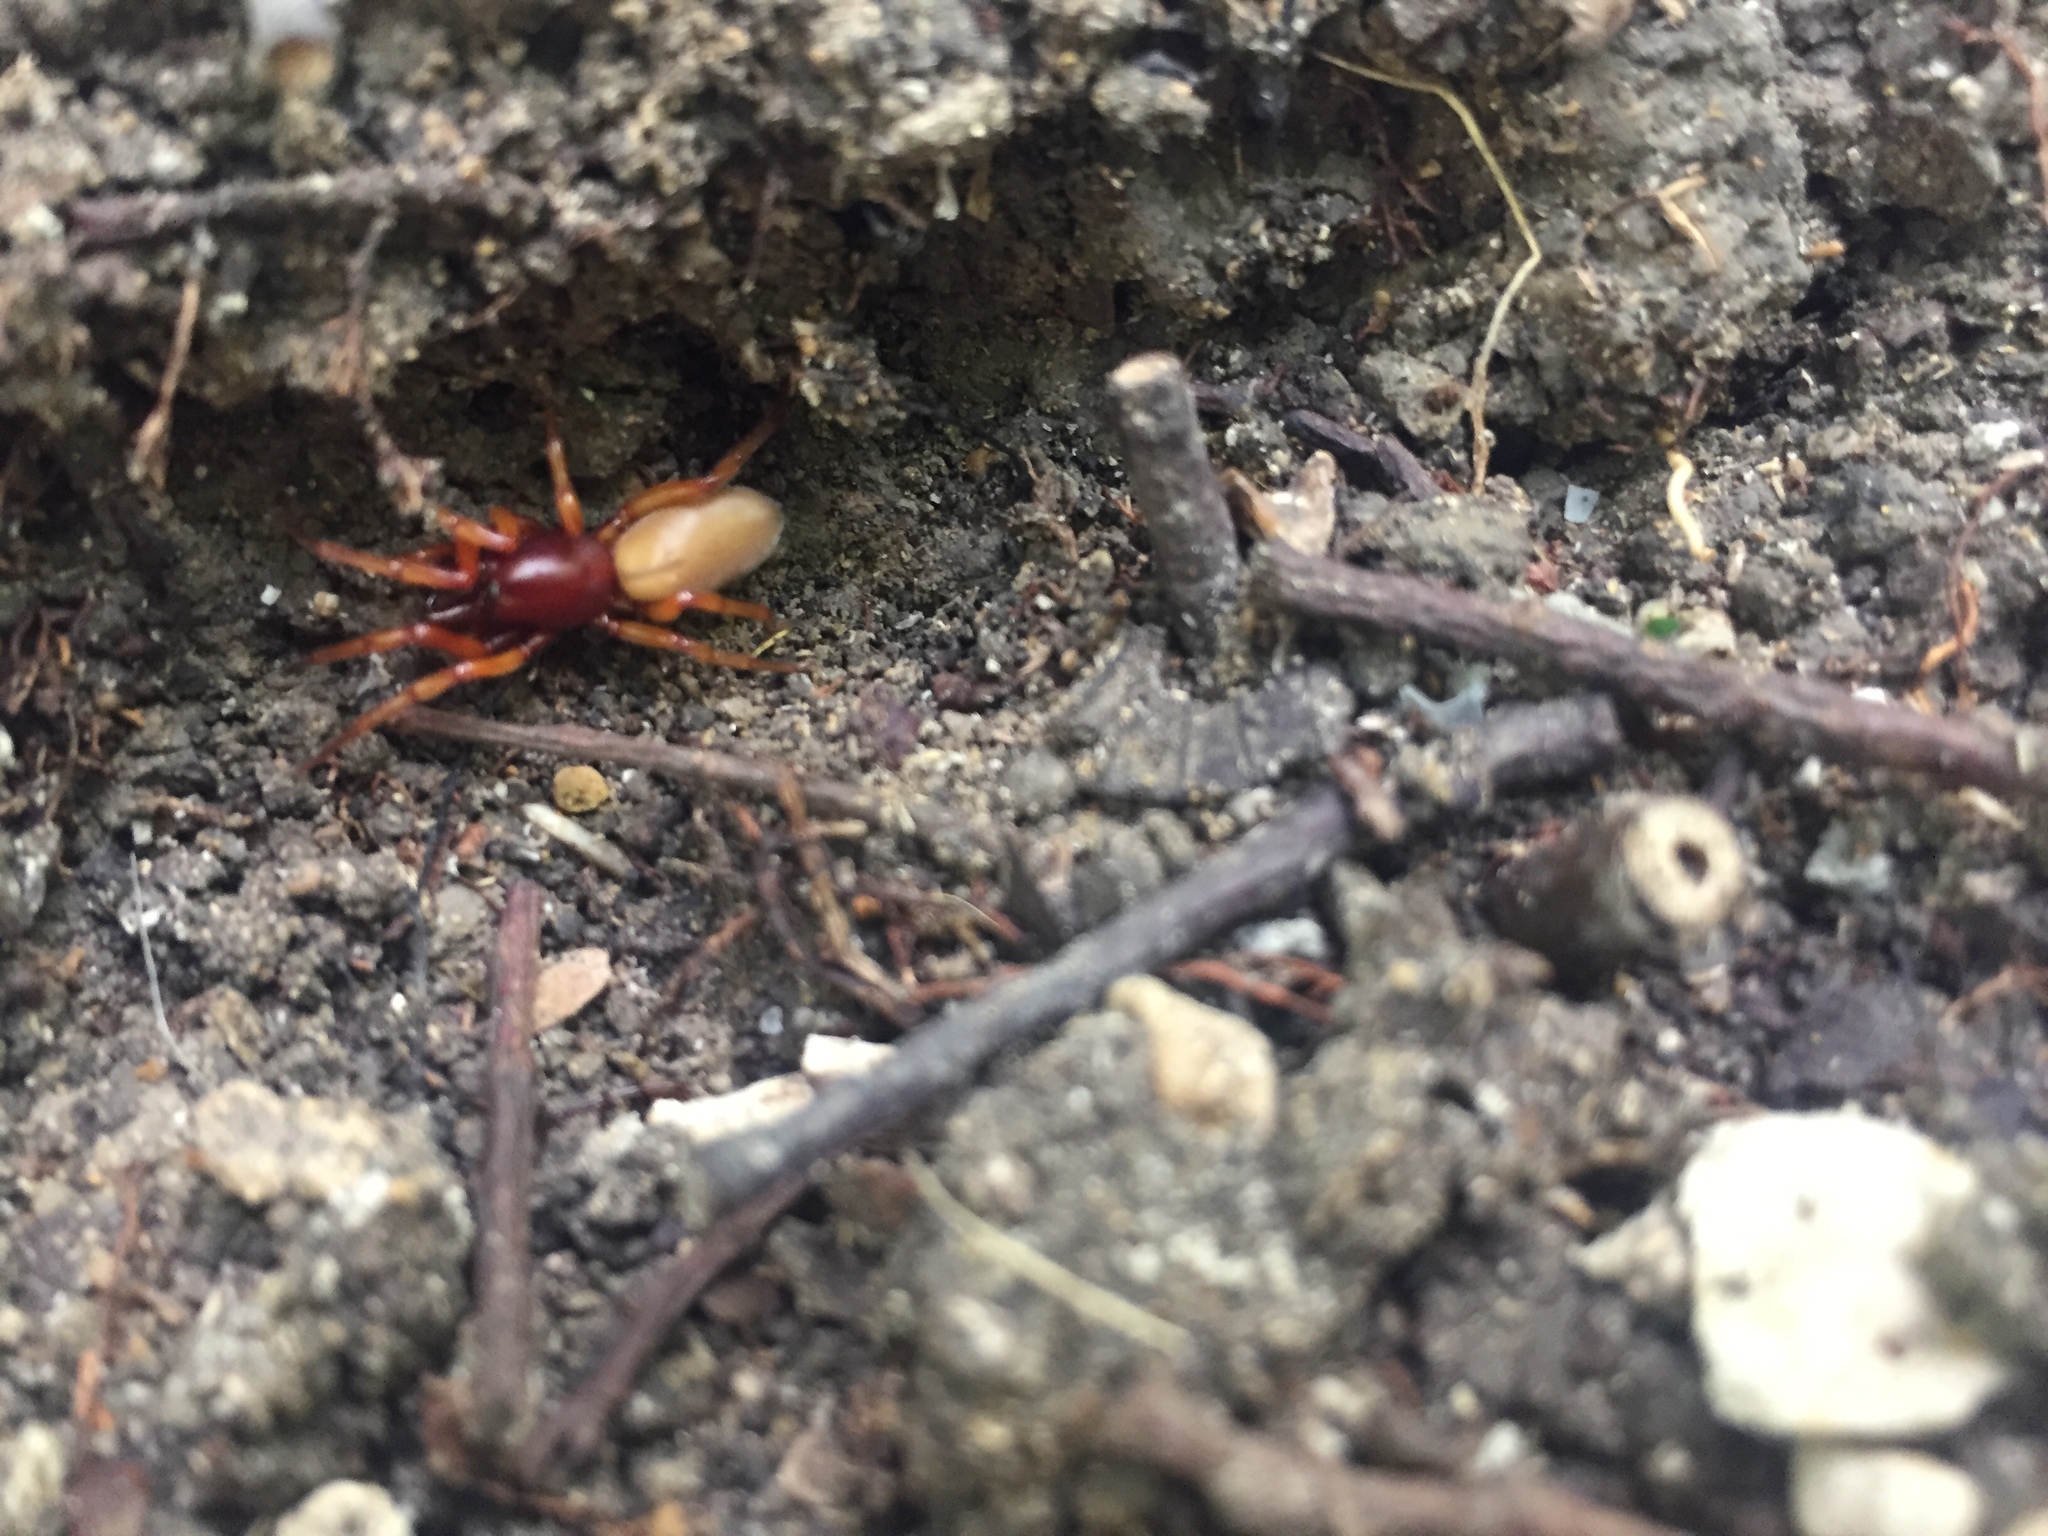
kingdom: Animalia
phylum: Arthropoda
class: Arachnida
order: Araneae
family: Dysderidae
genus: Dysdera
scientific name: Dysdera crocata
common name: Woodlouse spider
